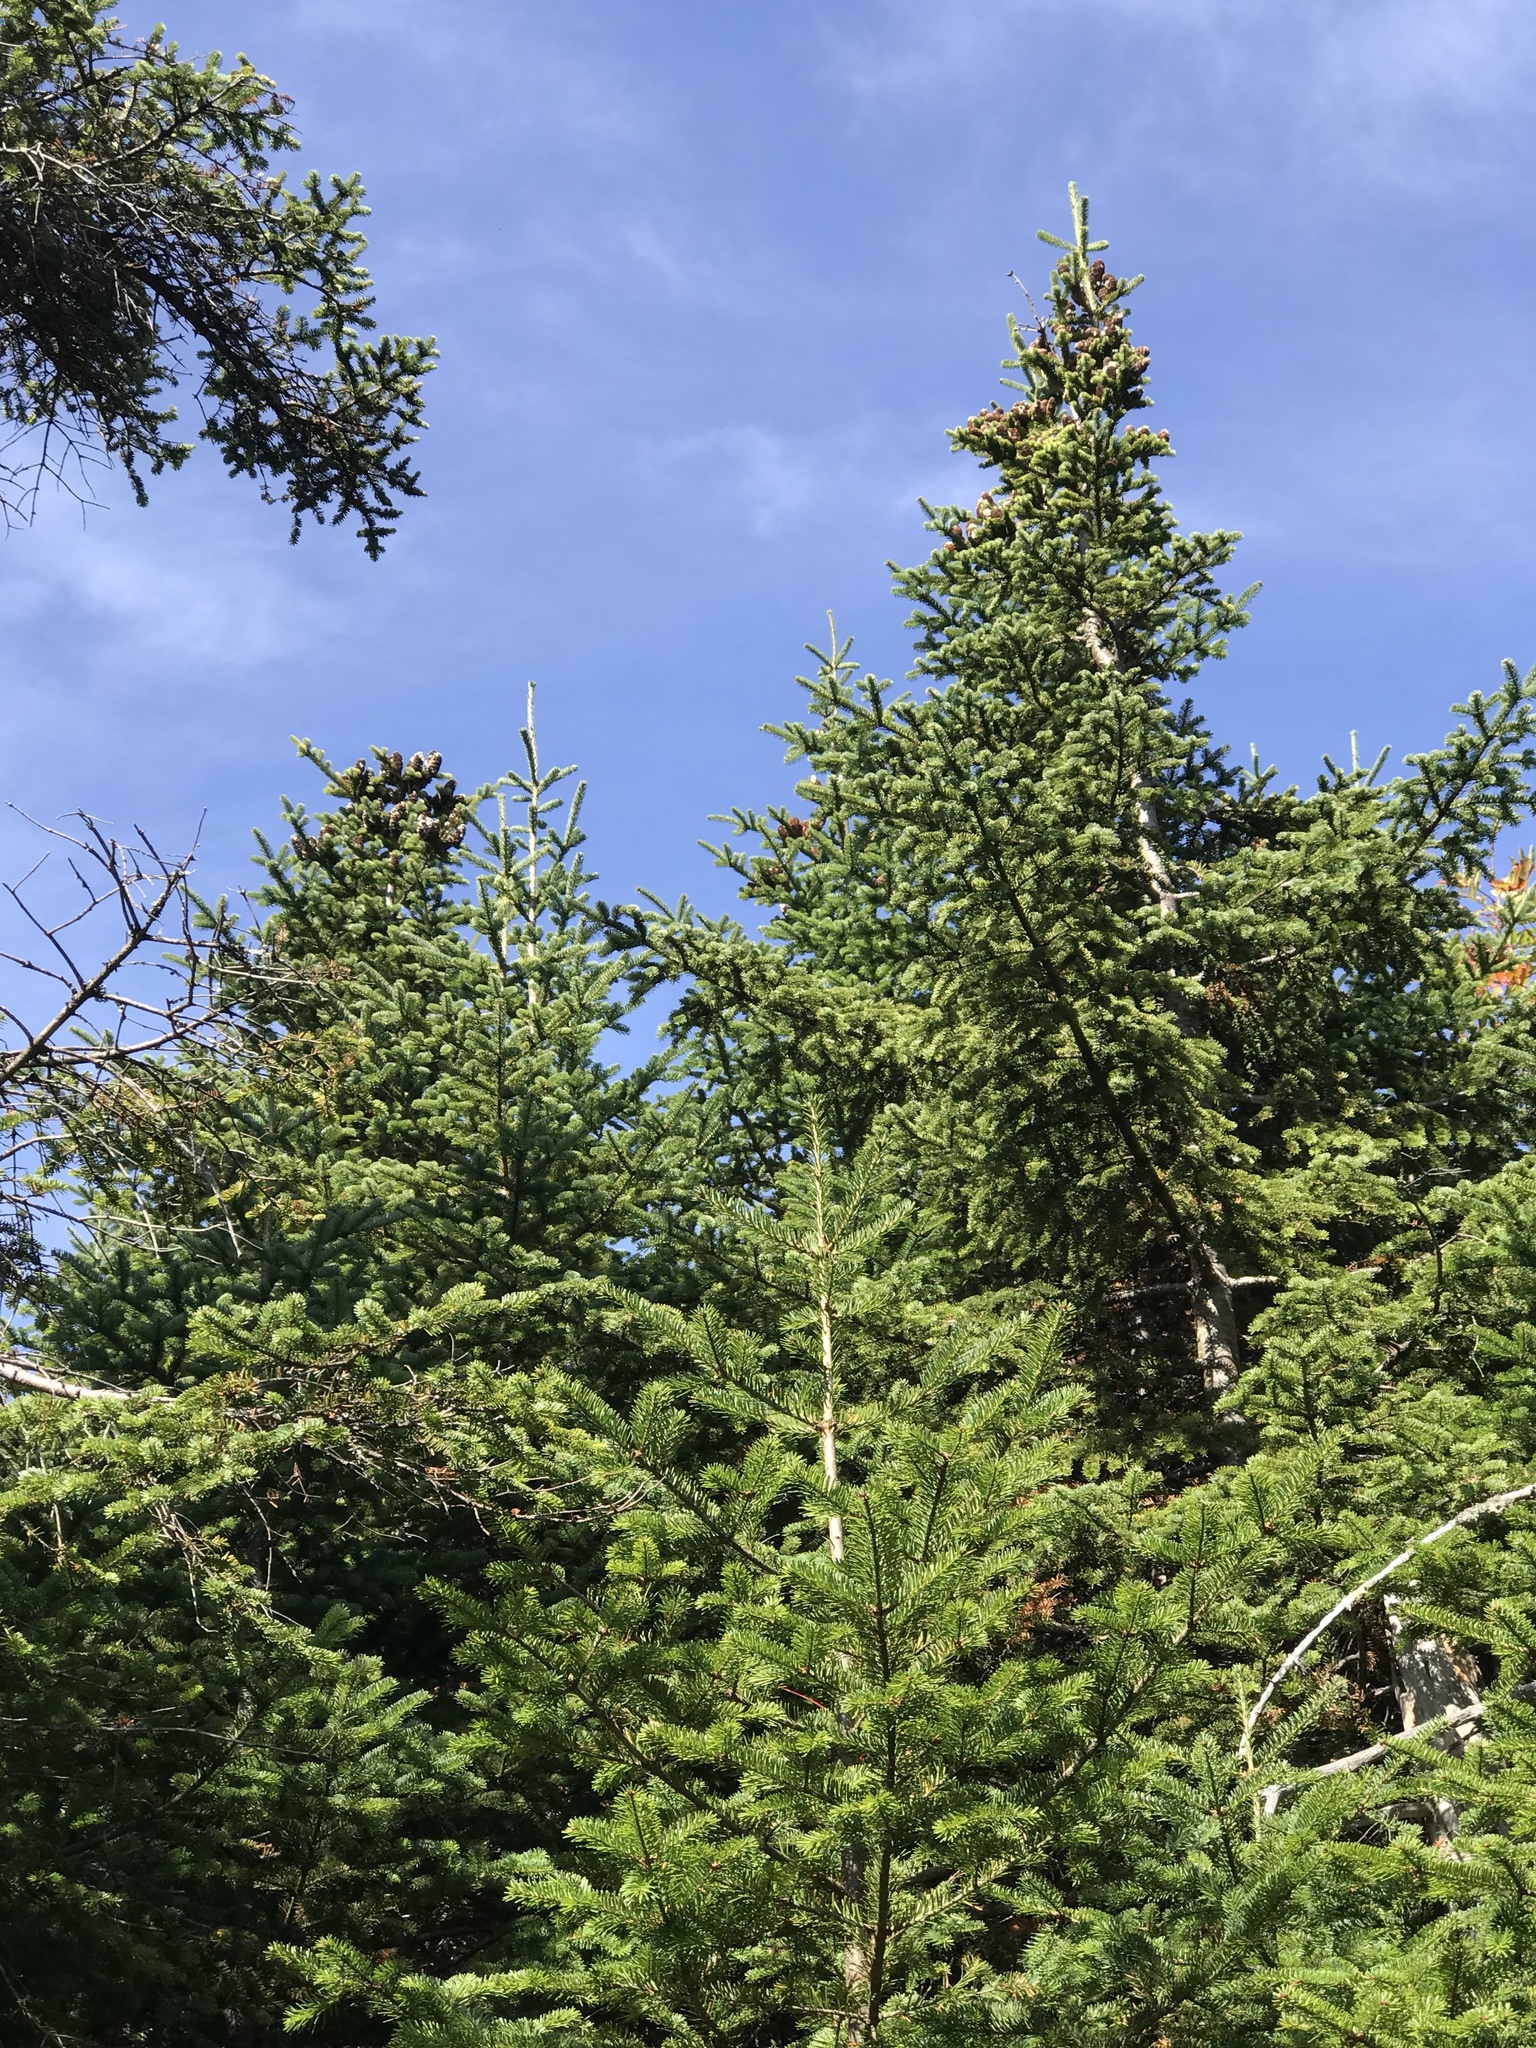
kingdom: Plantae
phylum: Tracheophyta
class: Pinopsida
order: Pinales
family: Pinaceae
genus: Abies
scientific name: Abies balsamea
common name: Balsam fir
